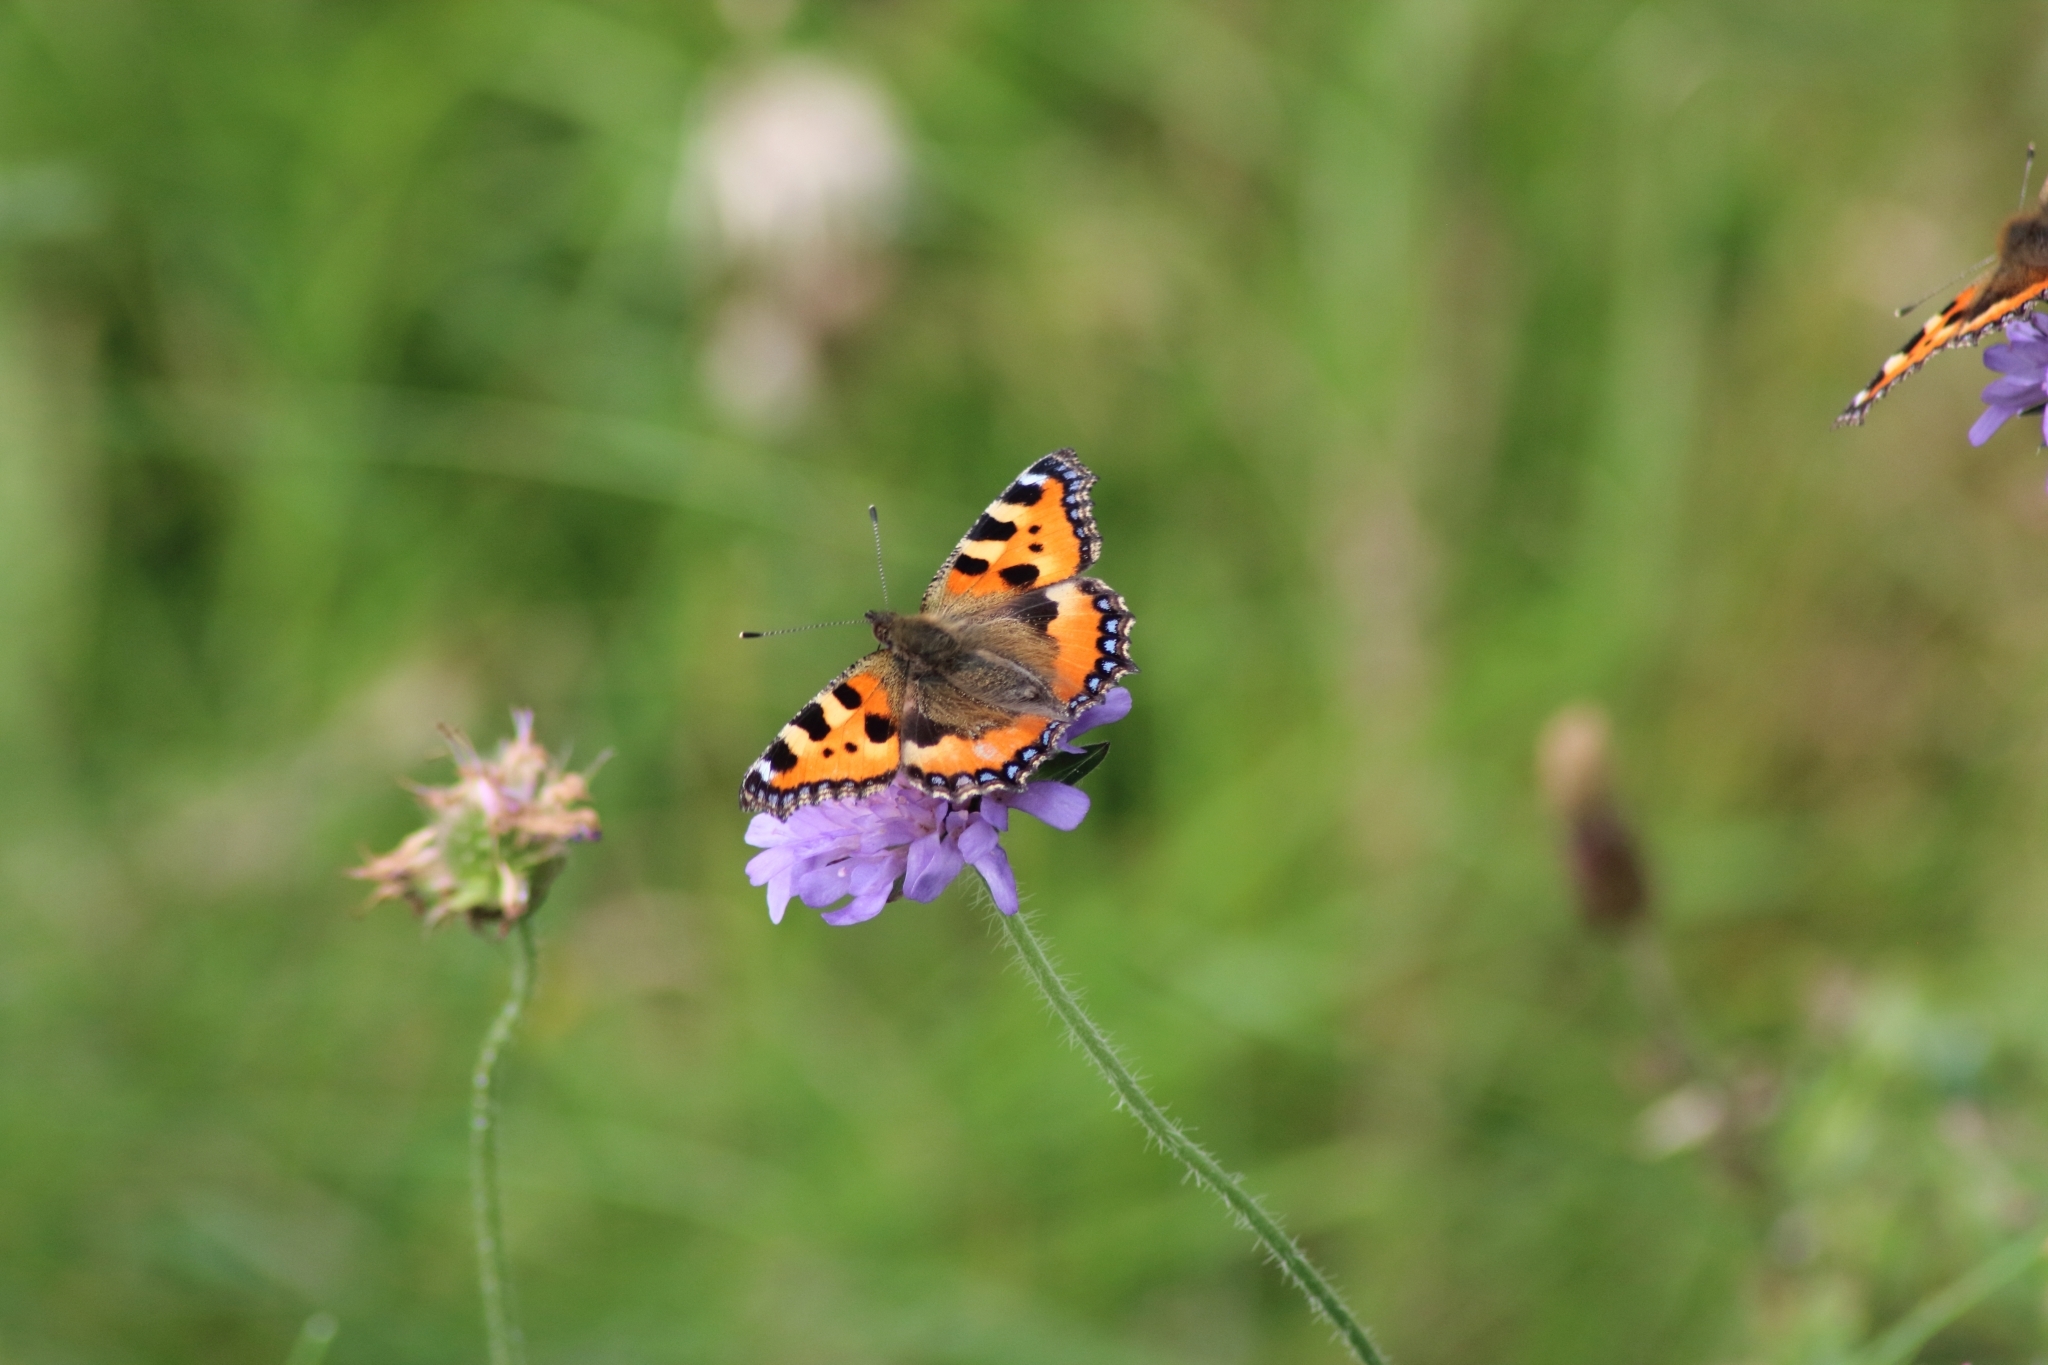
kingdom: Animalia
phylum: Arthropoda
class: Insecta
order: Lepidoptera
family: Nymphalidae
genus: Aglais
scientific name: Aglais urticae
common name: Small tortoiseshell
